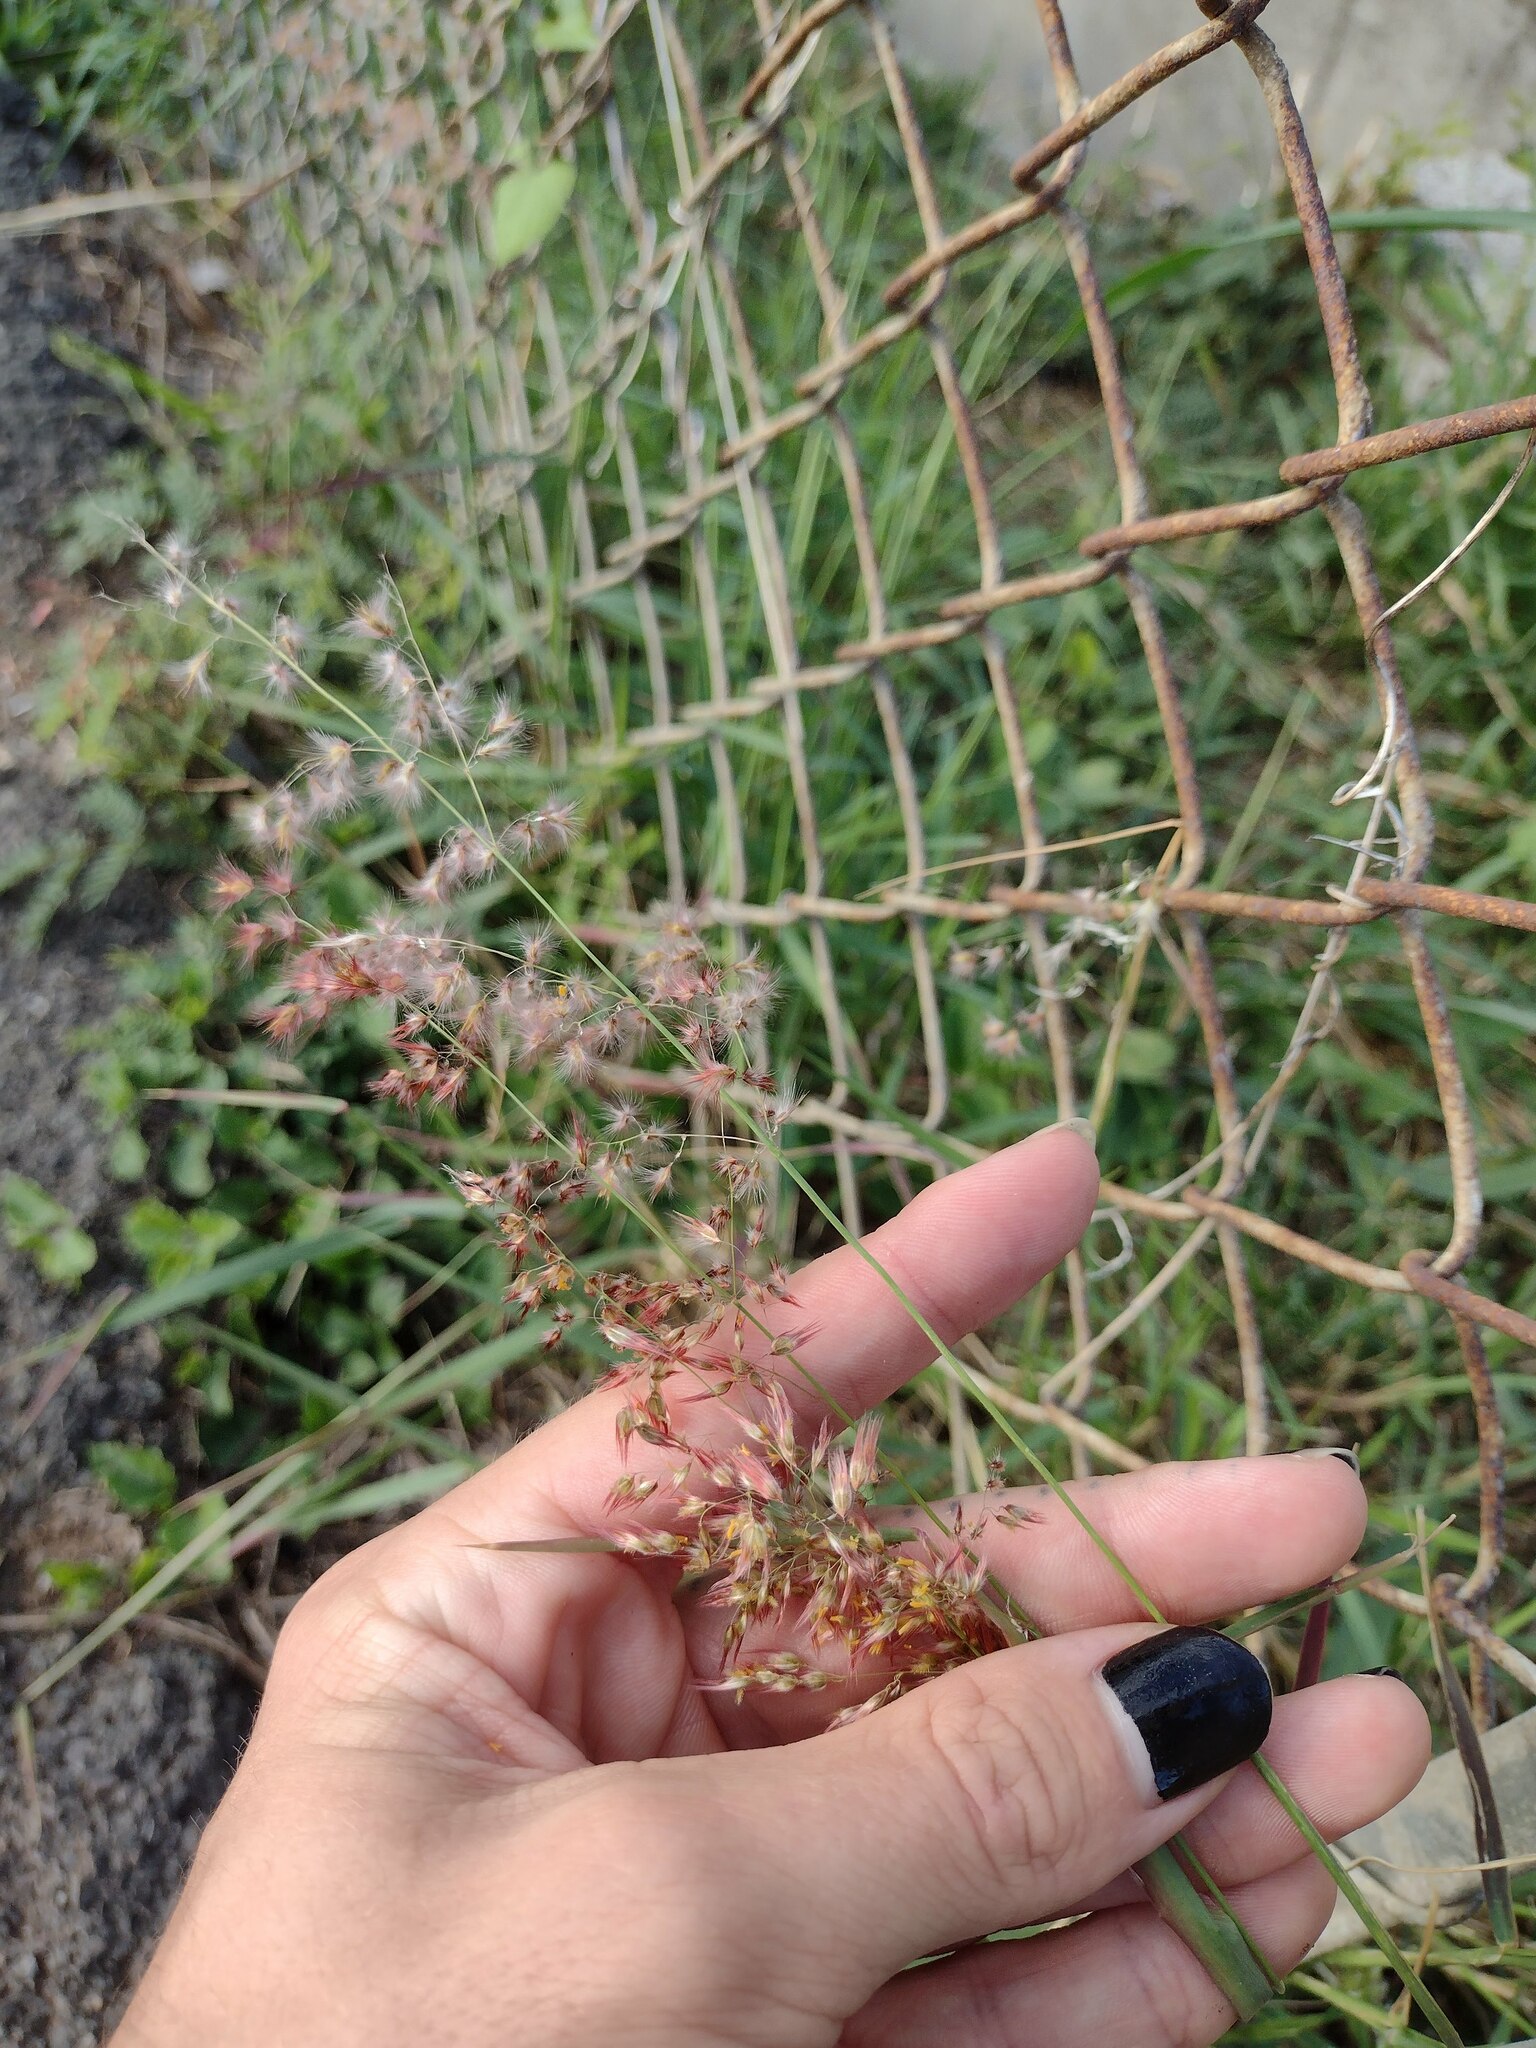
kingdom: Plantae
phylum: Tracheophyta
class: Liliopsida
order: Poales
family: Poaceae
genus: Melinis
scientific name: Melinis repens
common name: Rose natal grass
